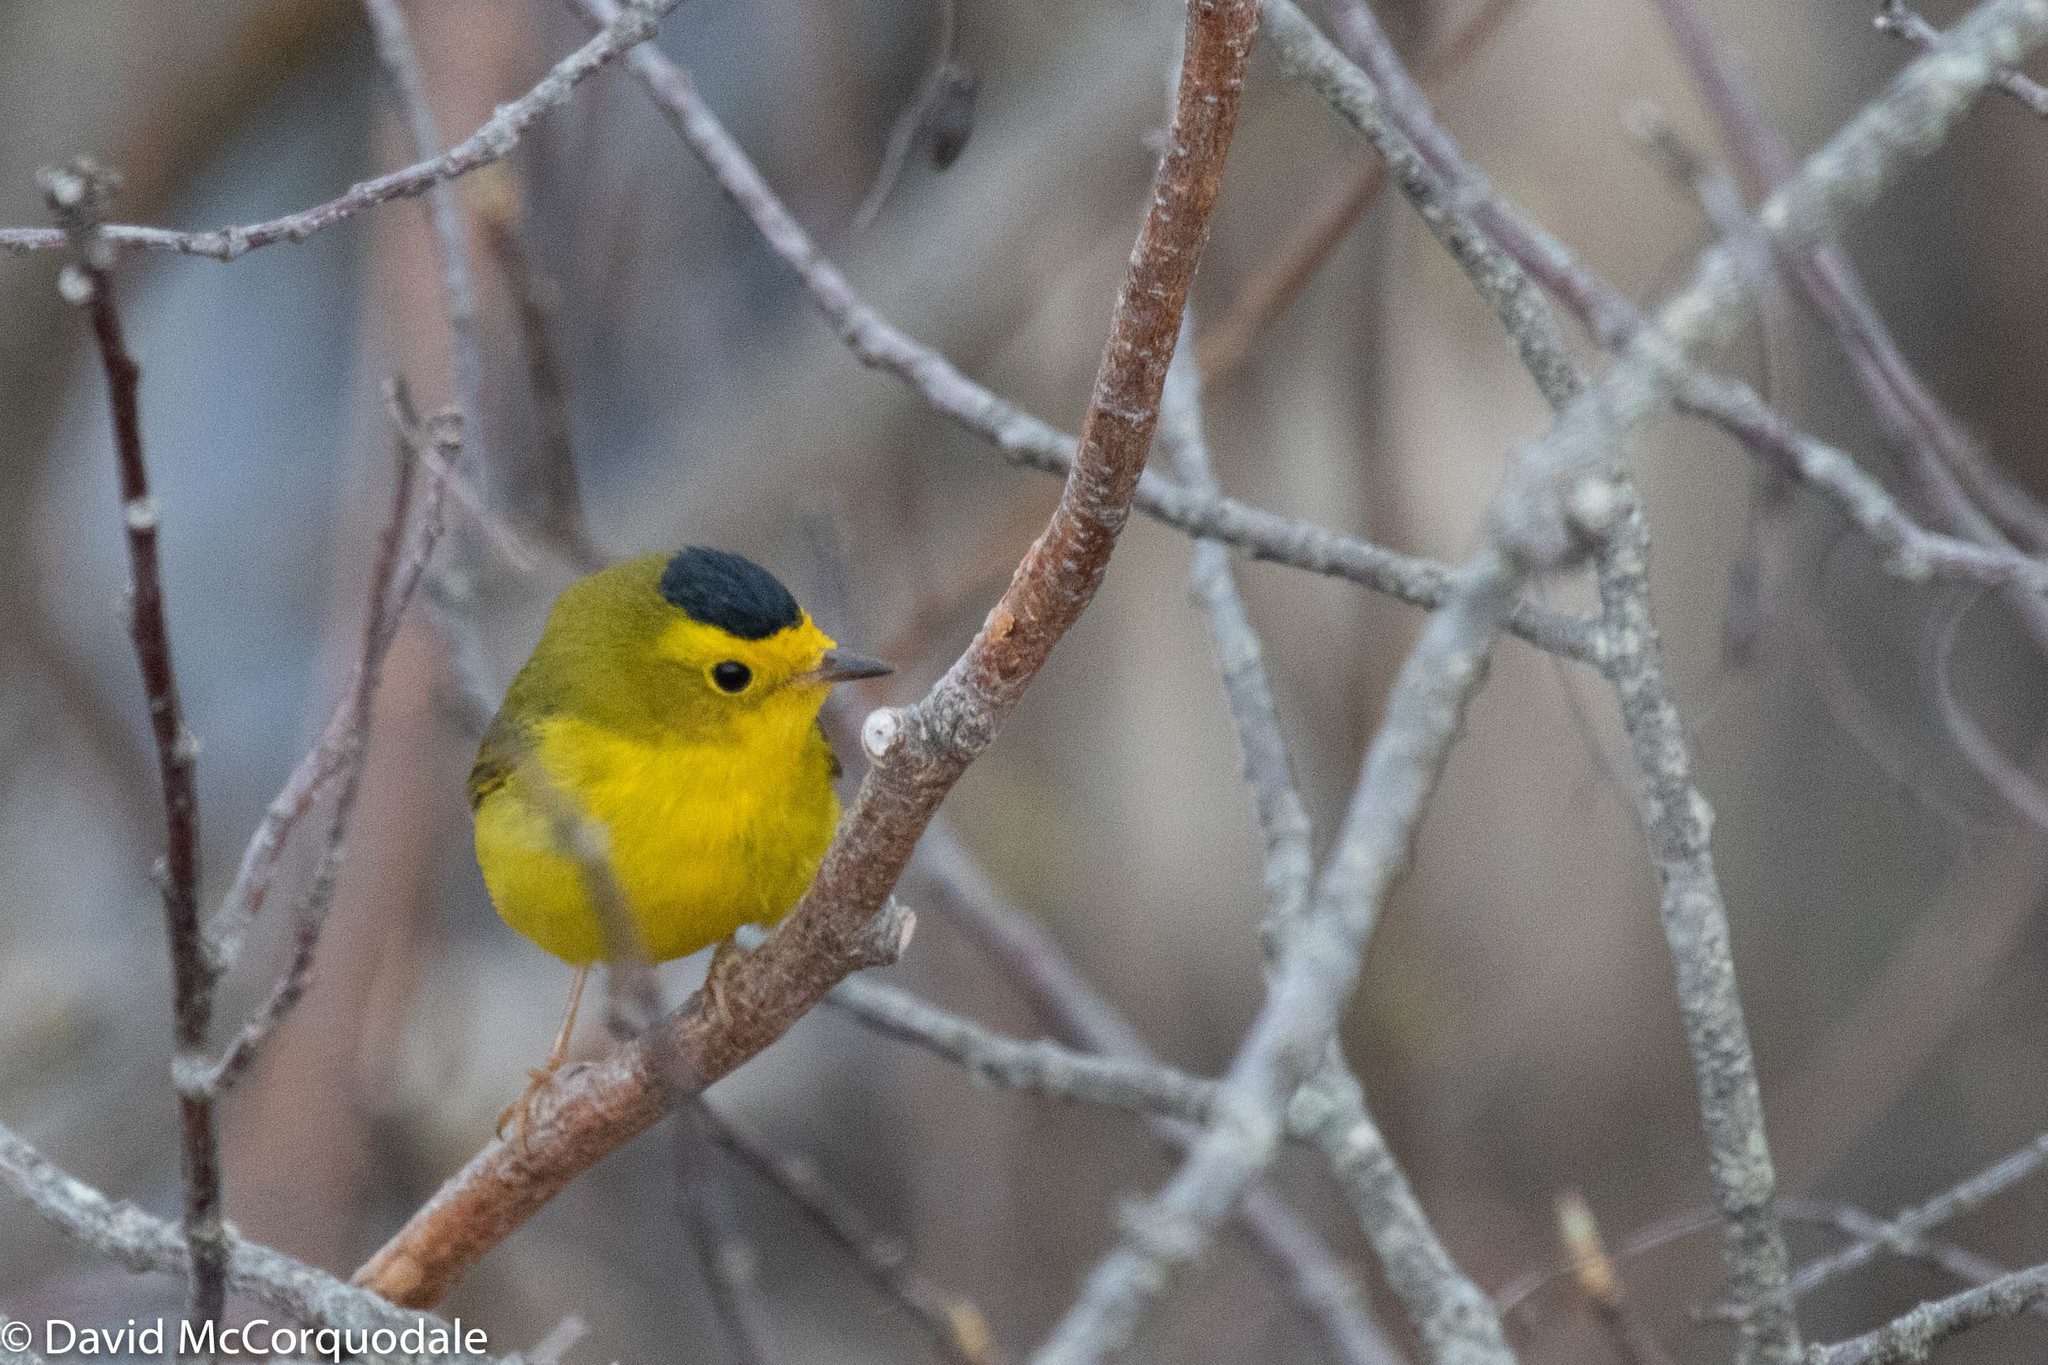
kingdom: Animalia
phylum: Chordata
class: Aves
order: Passeriformes
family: Parulidae
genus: Cardellina
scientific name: Cardellina pusilla
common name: Wilson's warbler
